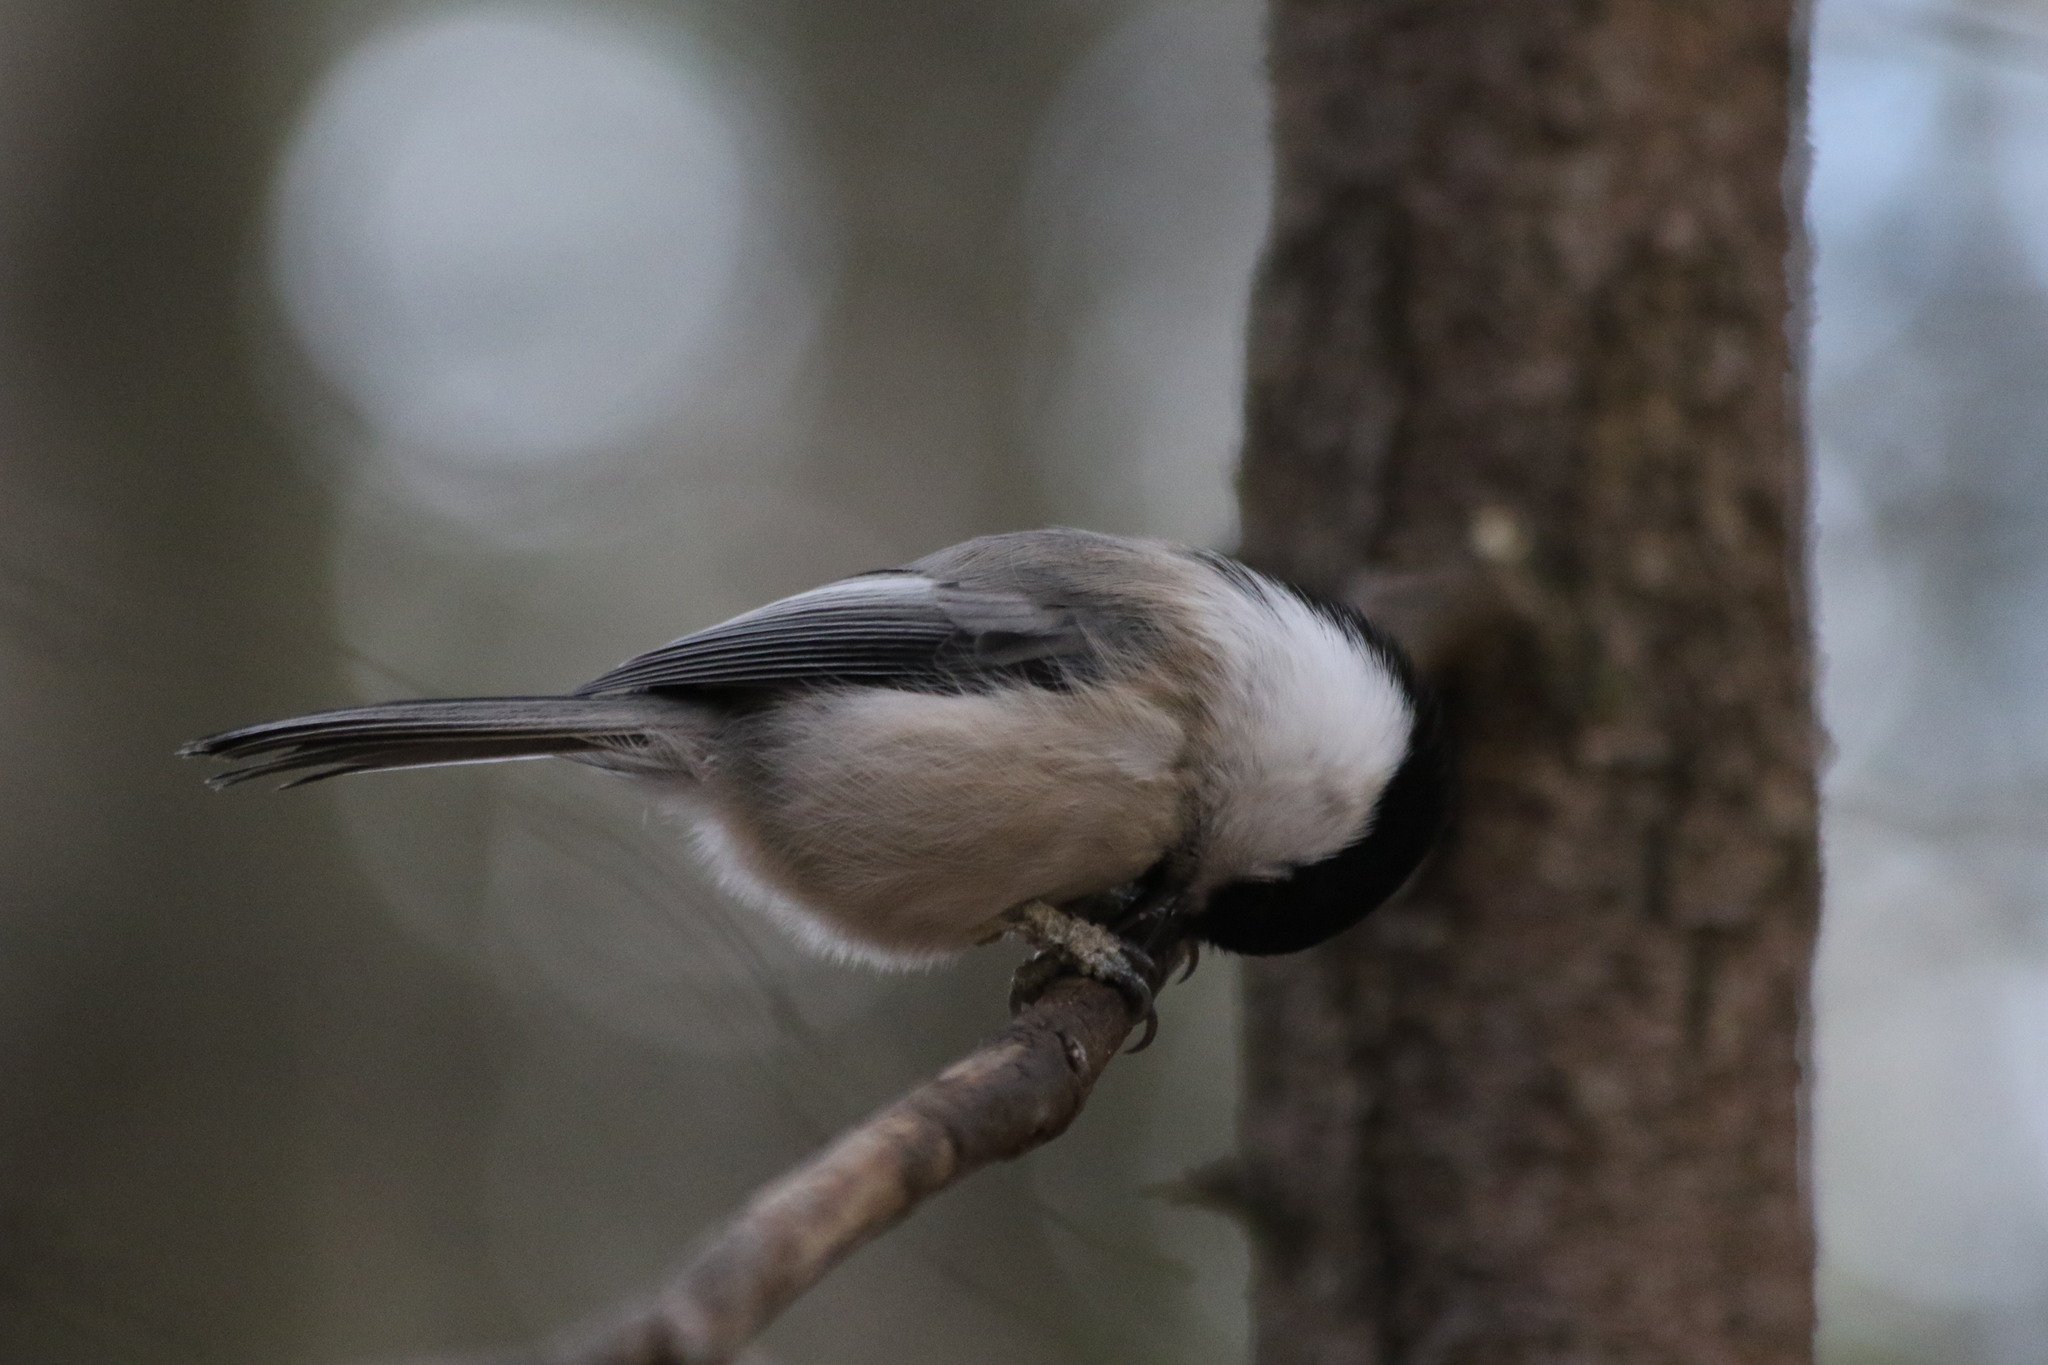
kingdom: Animalia
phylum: Chordata
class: Aves
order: Passeriformes
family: Paridae
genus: Poecile
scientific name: Poecile montanus
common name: Willow tit
